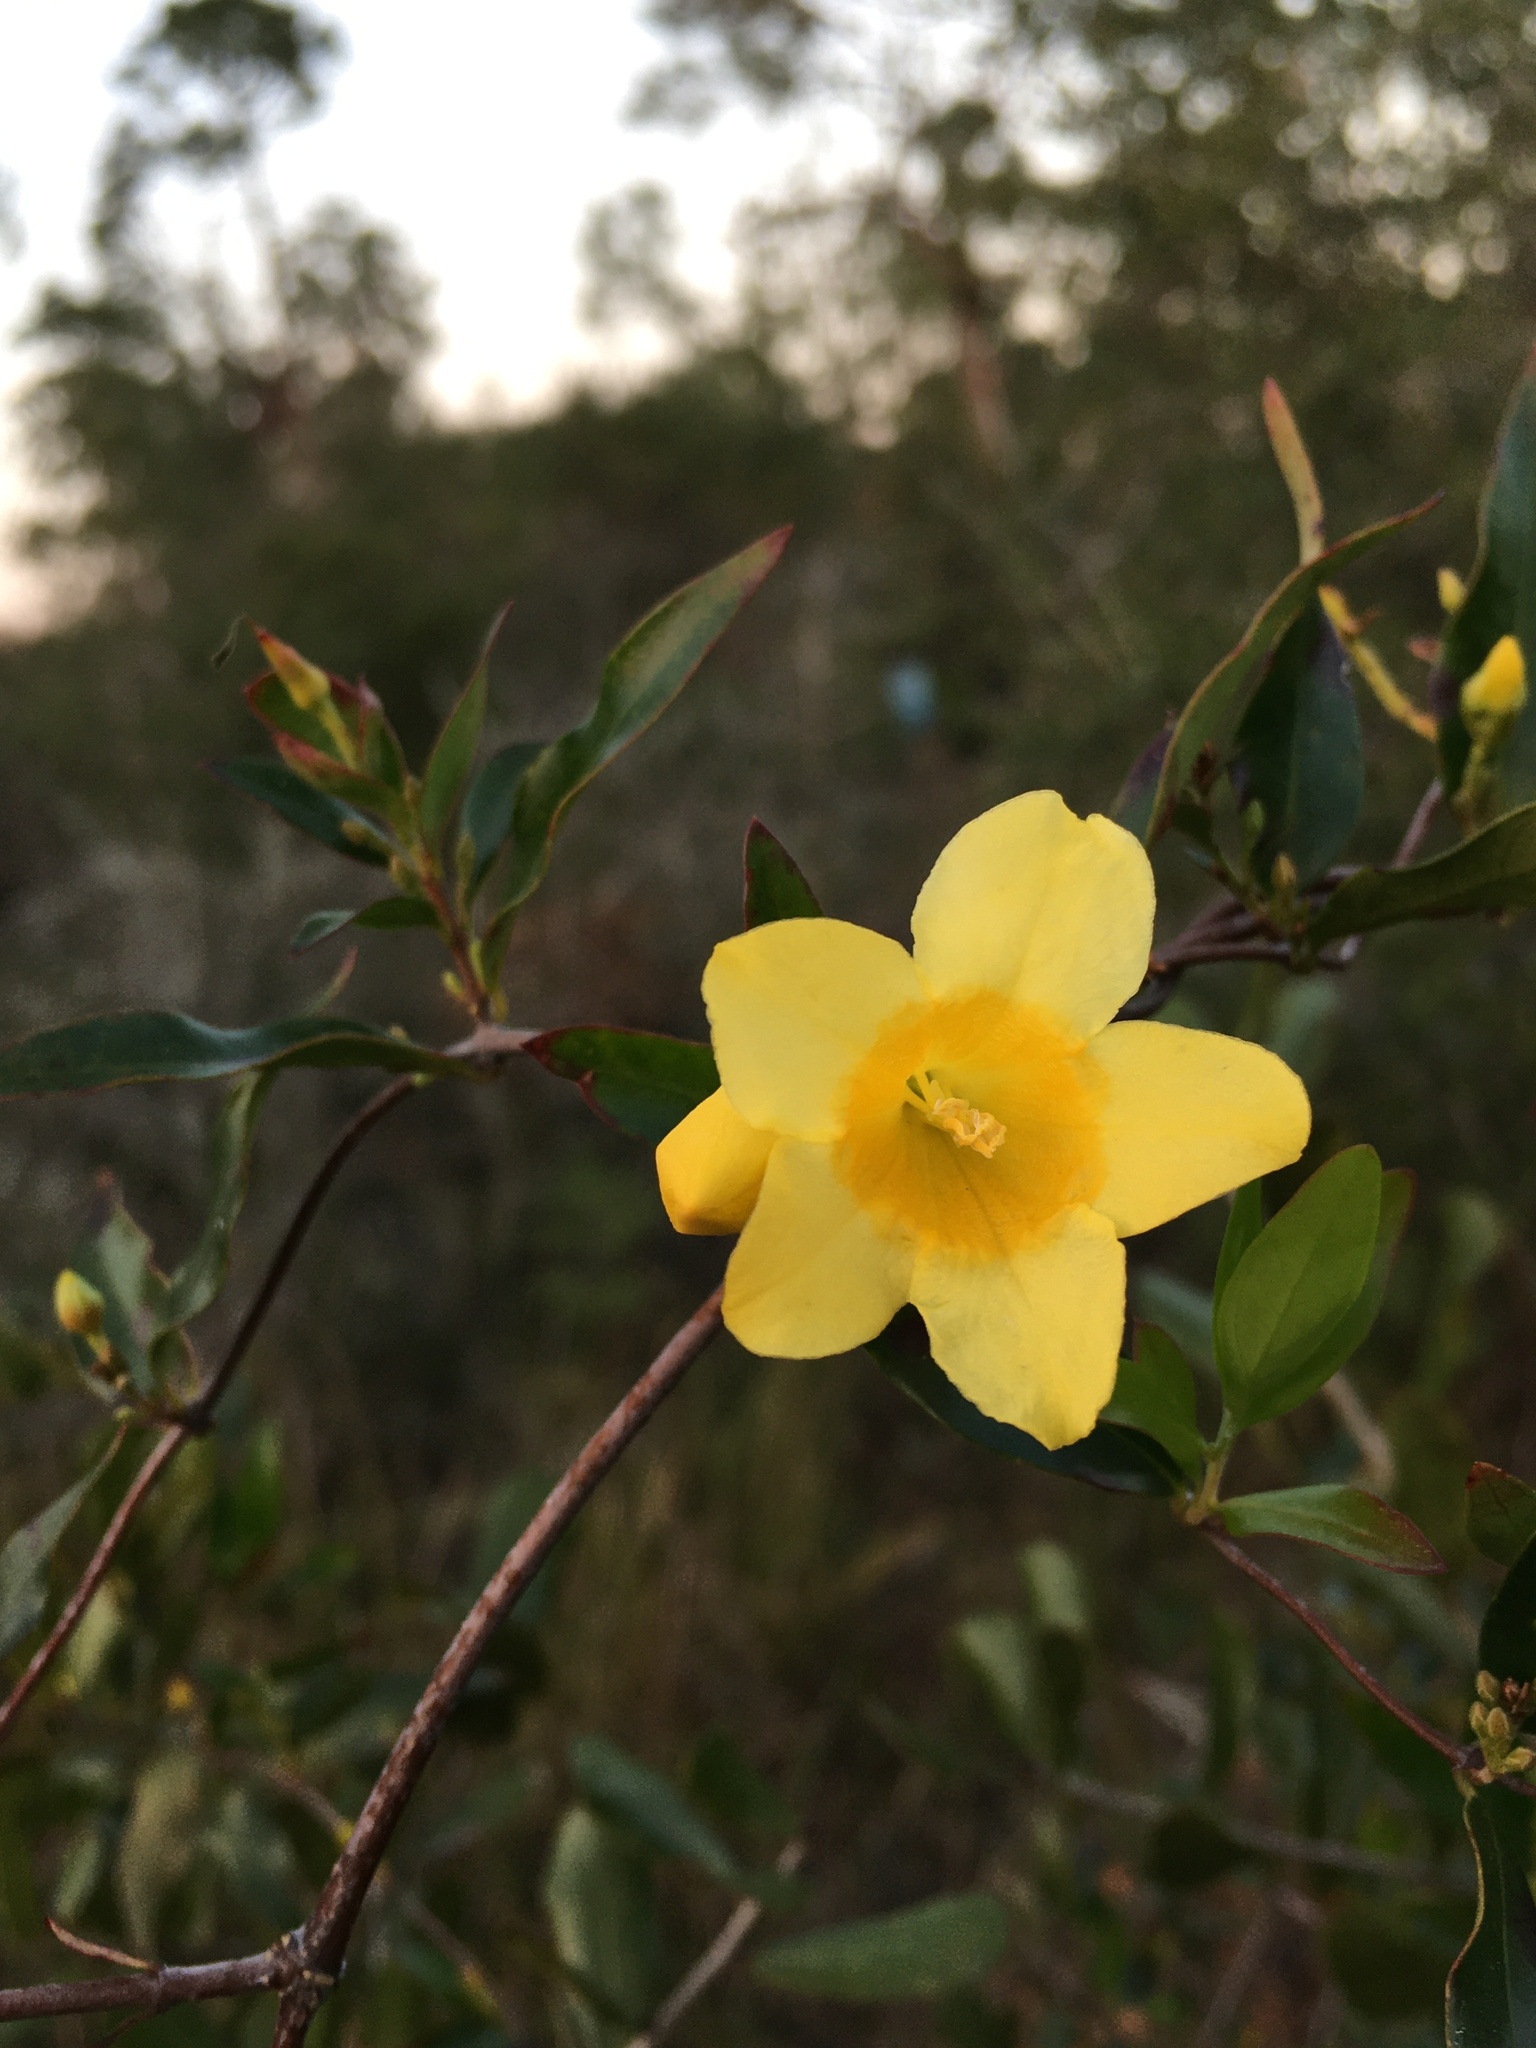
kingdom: Plantae
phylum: Tracheophyta
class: Magnoliopsida
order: Gentianales
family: Gelsemiaceae
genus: Gelsemium
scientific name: Gelsemium sempervirens
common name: Carolina-jasmine
